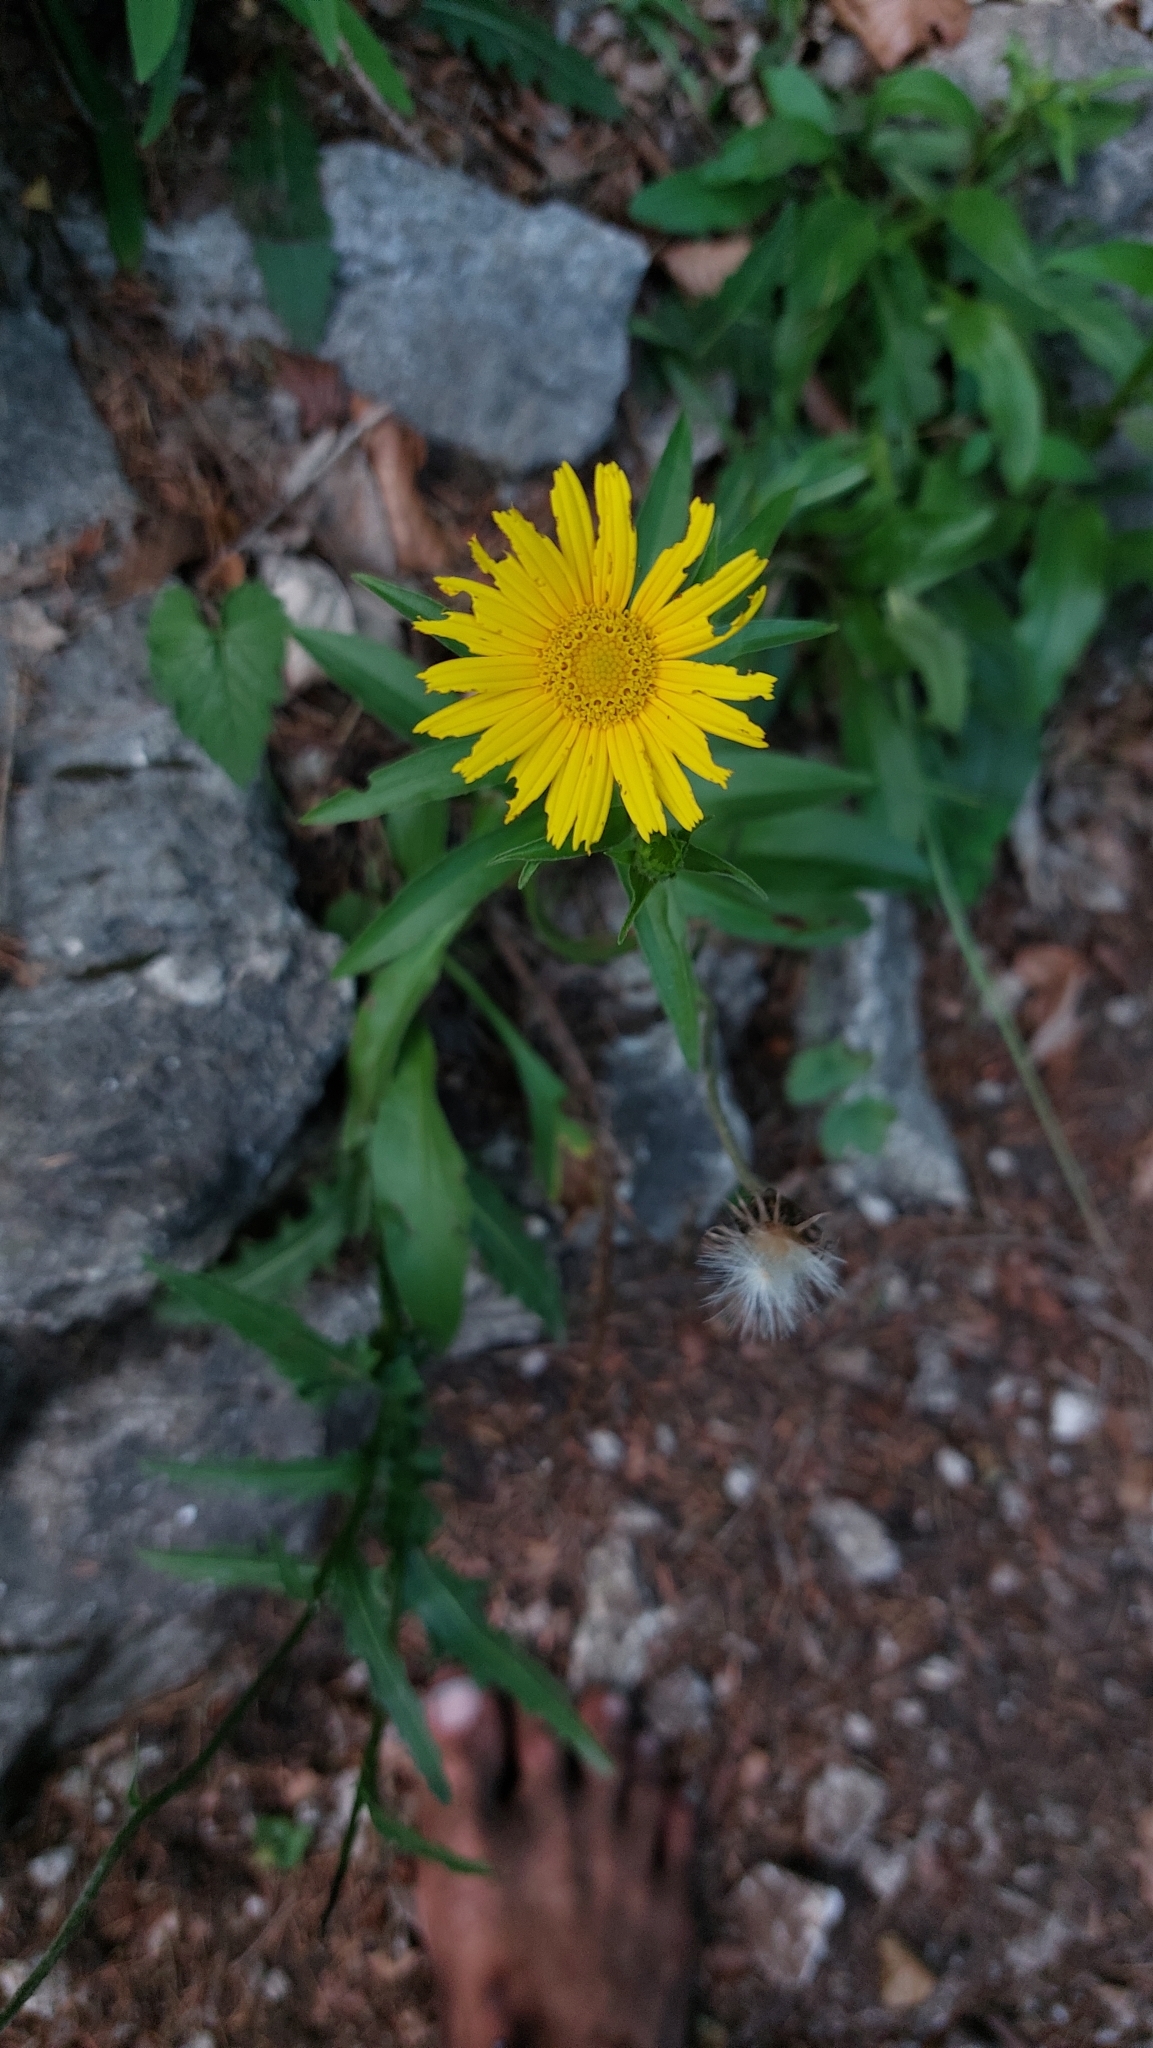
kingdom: Plantae
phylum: Tracheophyta
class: Magnoliopsida
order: Asterales
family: Asteraceae
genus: Buphthalmum
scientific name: Buphthalmum salicifolium
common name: Willow-leaved yellow-oxeye
